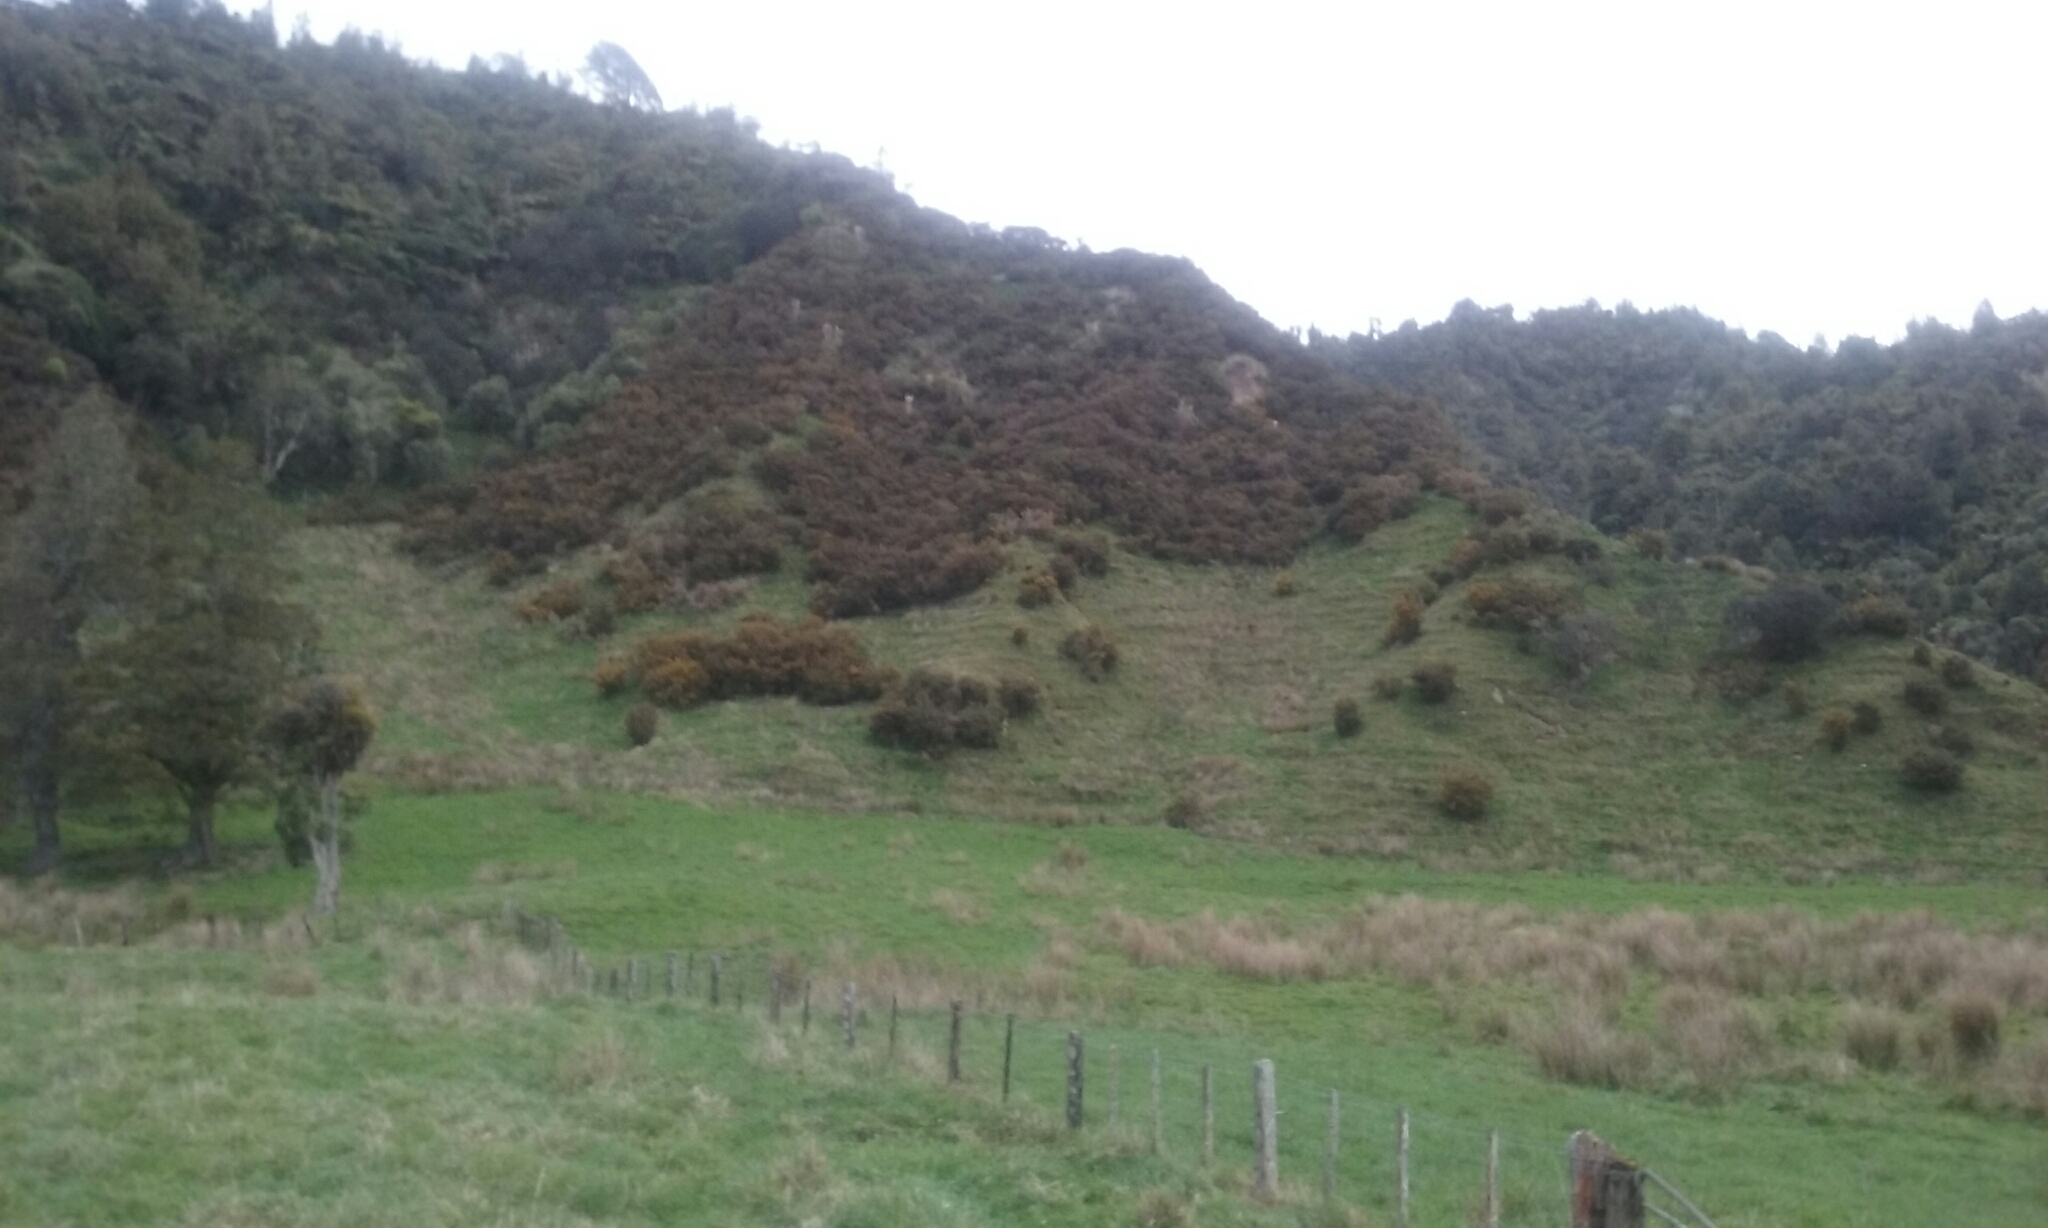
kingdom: Plantae
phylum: Tracheophyta
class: Magnoliopsida
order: Fabales
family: Fabaceae
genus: Ulex
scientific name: Ulex europaeus
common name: Common gorse
